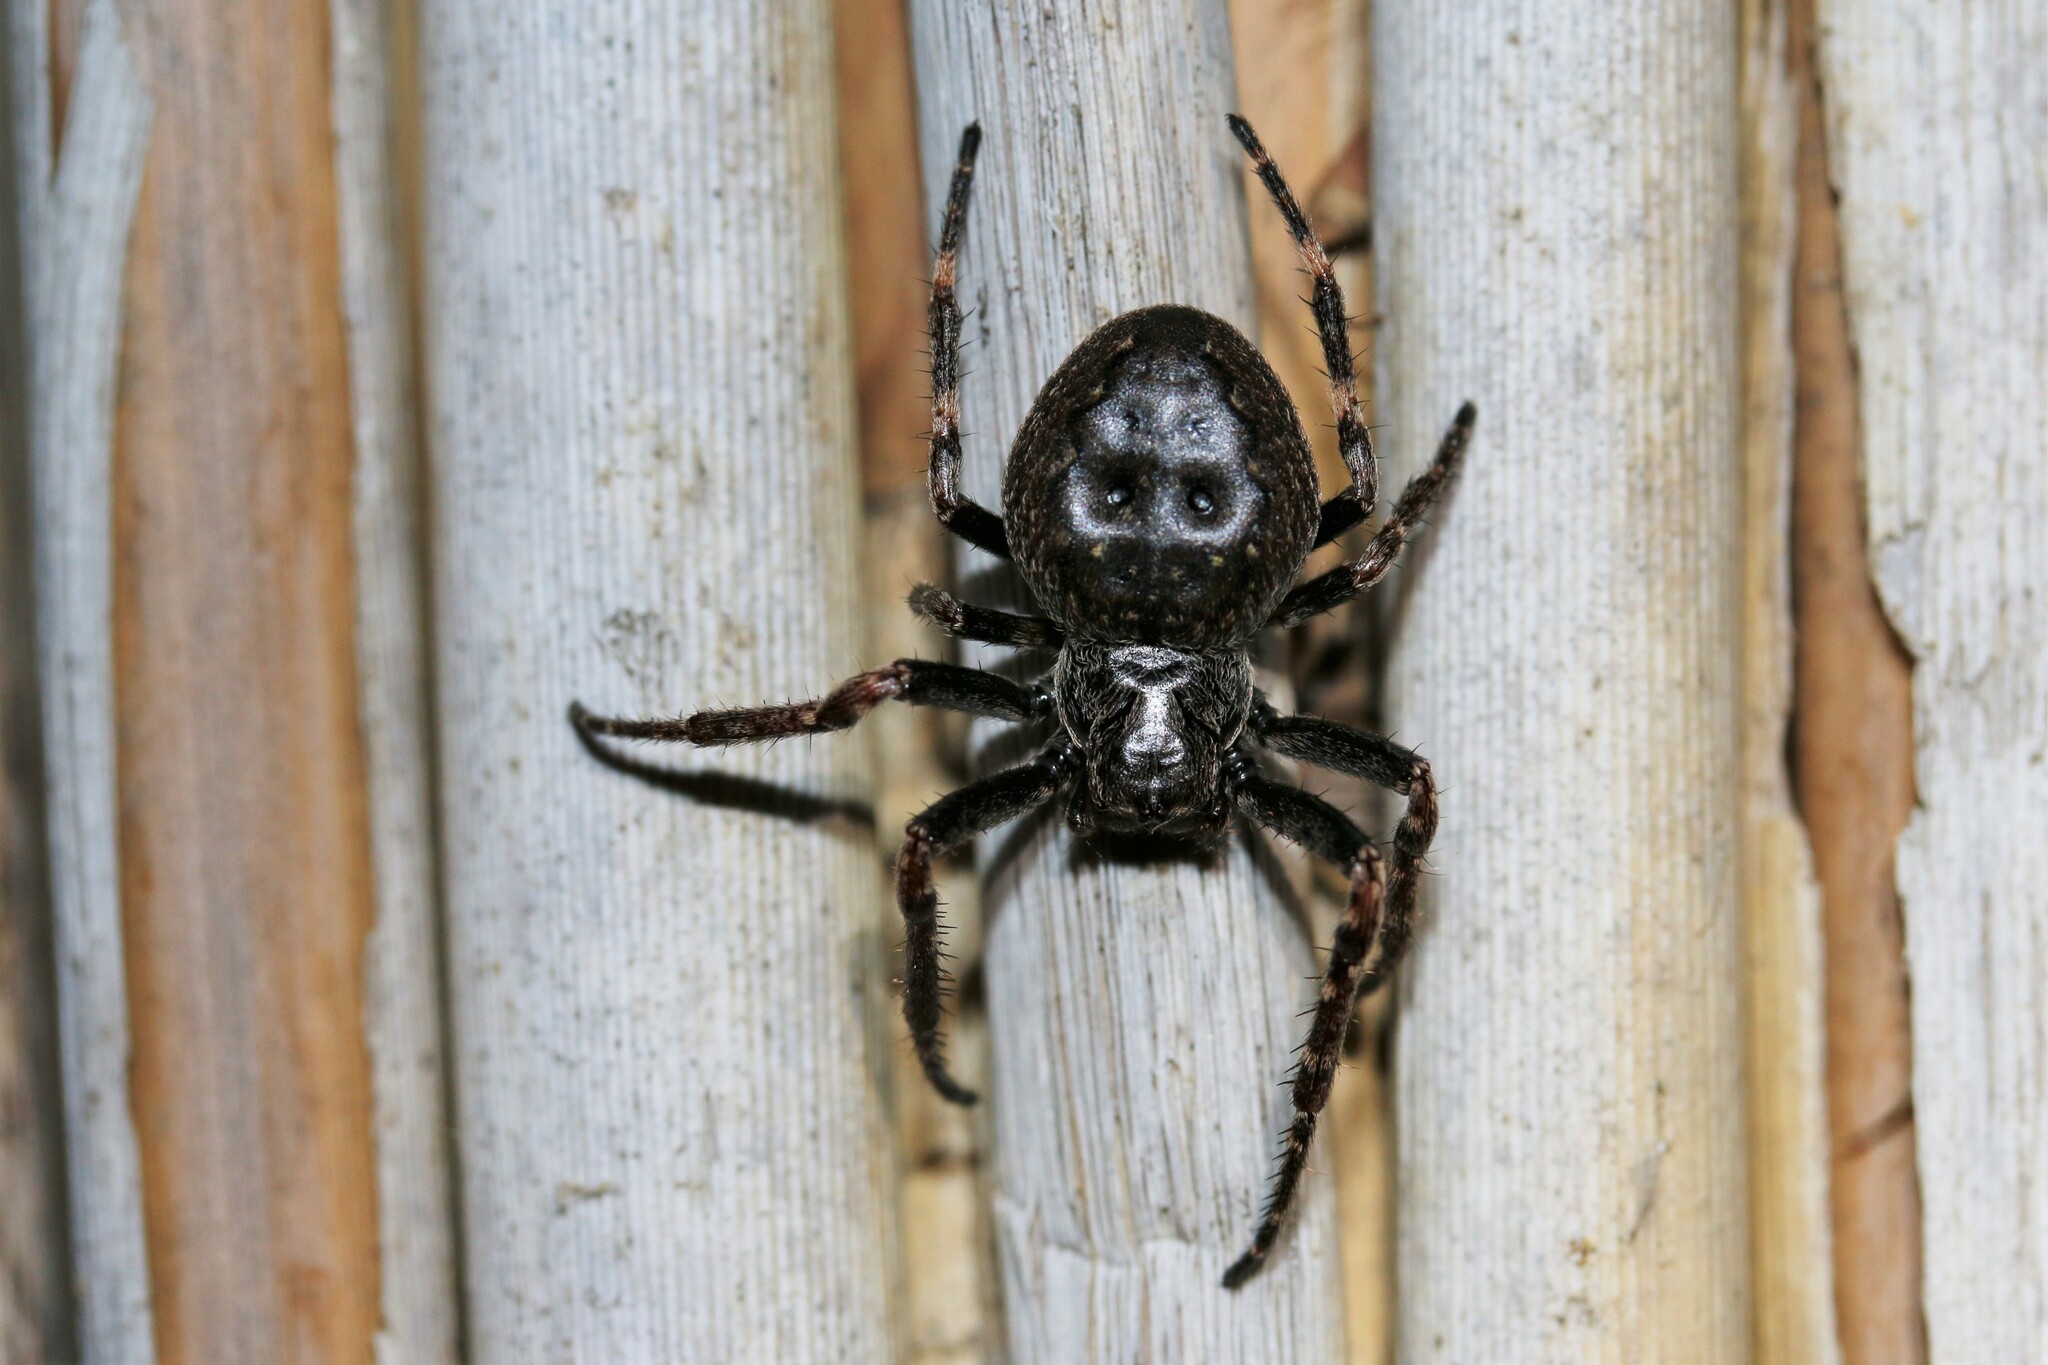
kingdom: Animalia
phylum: Arthropoda
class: Arachnida
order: Araneae
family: Araneidae
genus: Nuctenea
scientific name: Nuctenea umbratica
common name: Toad spider
